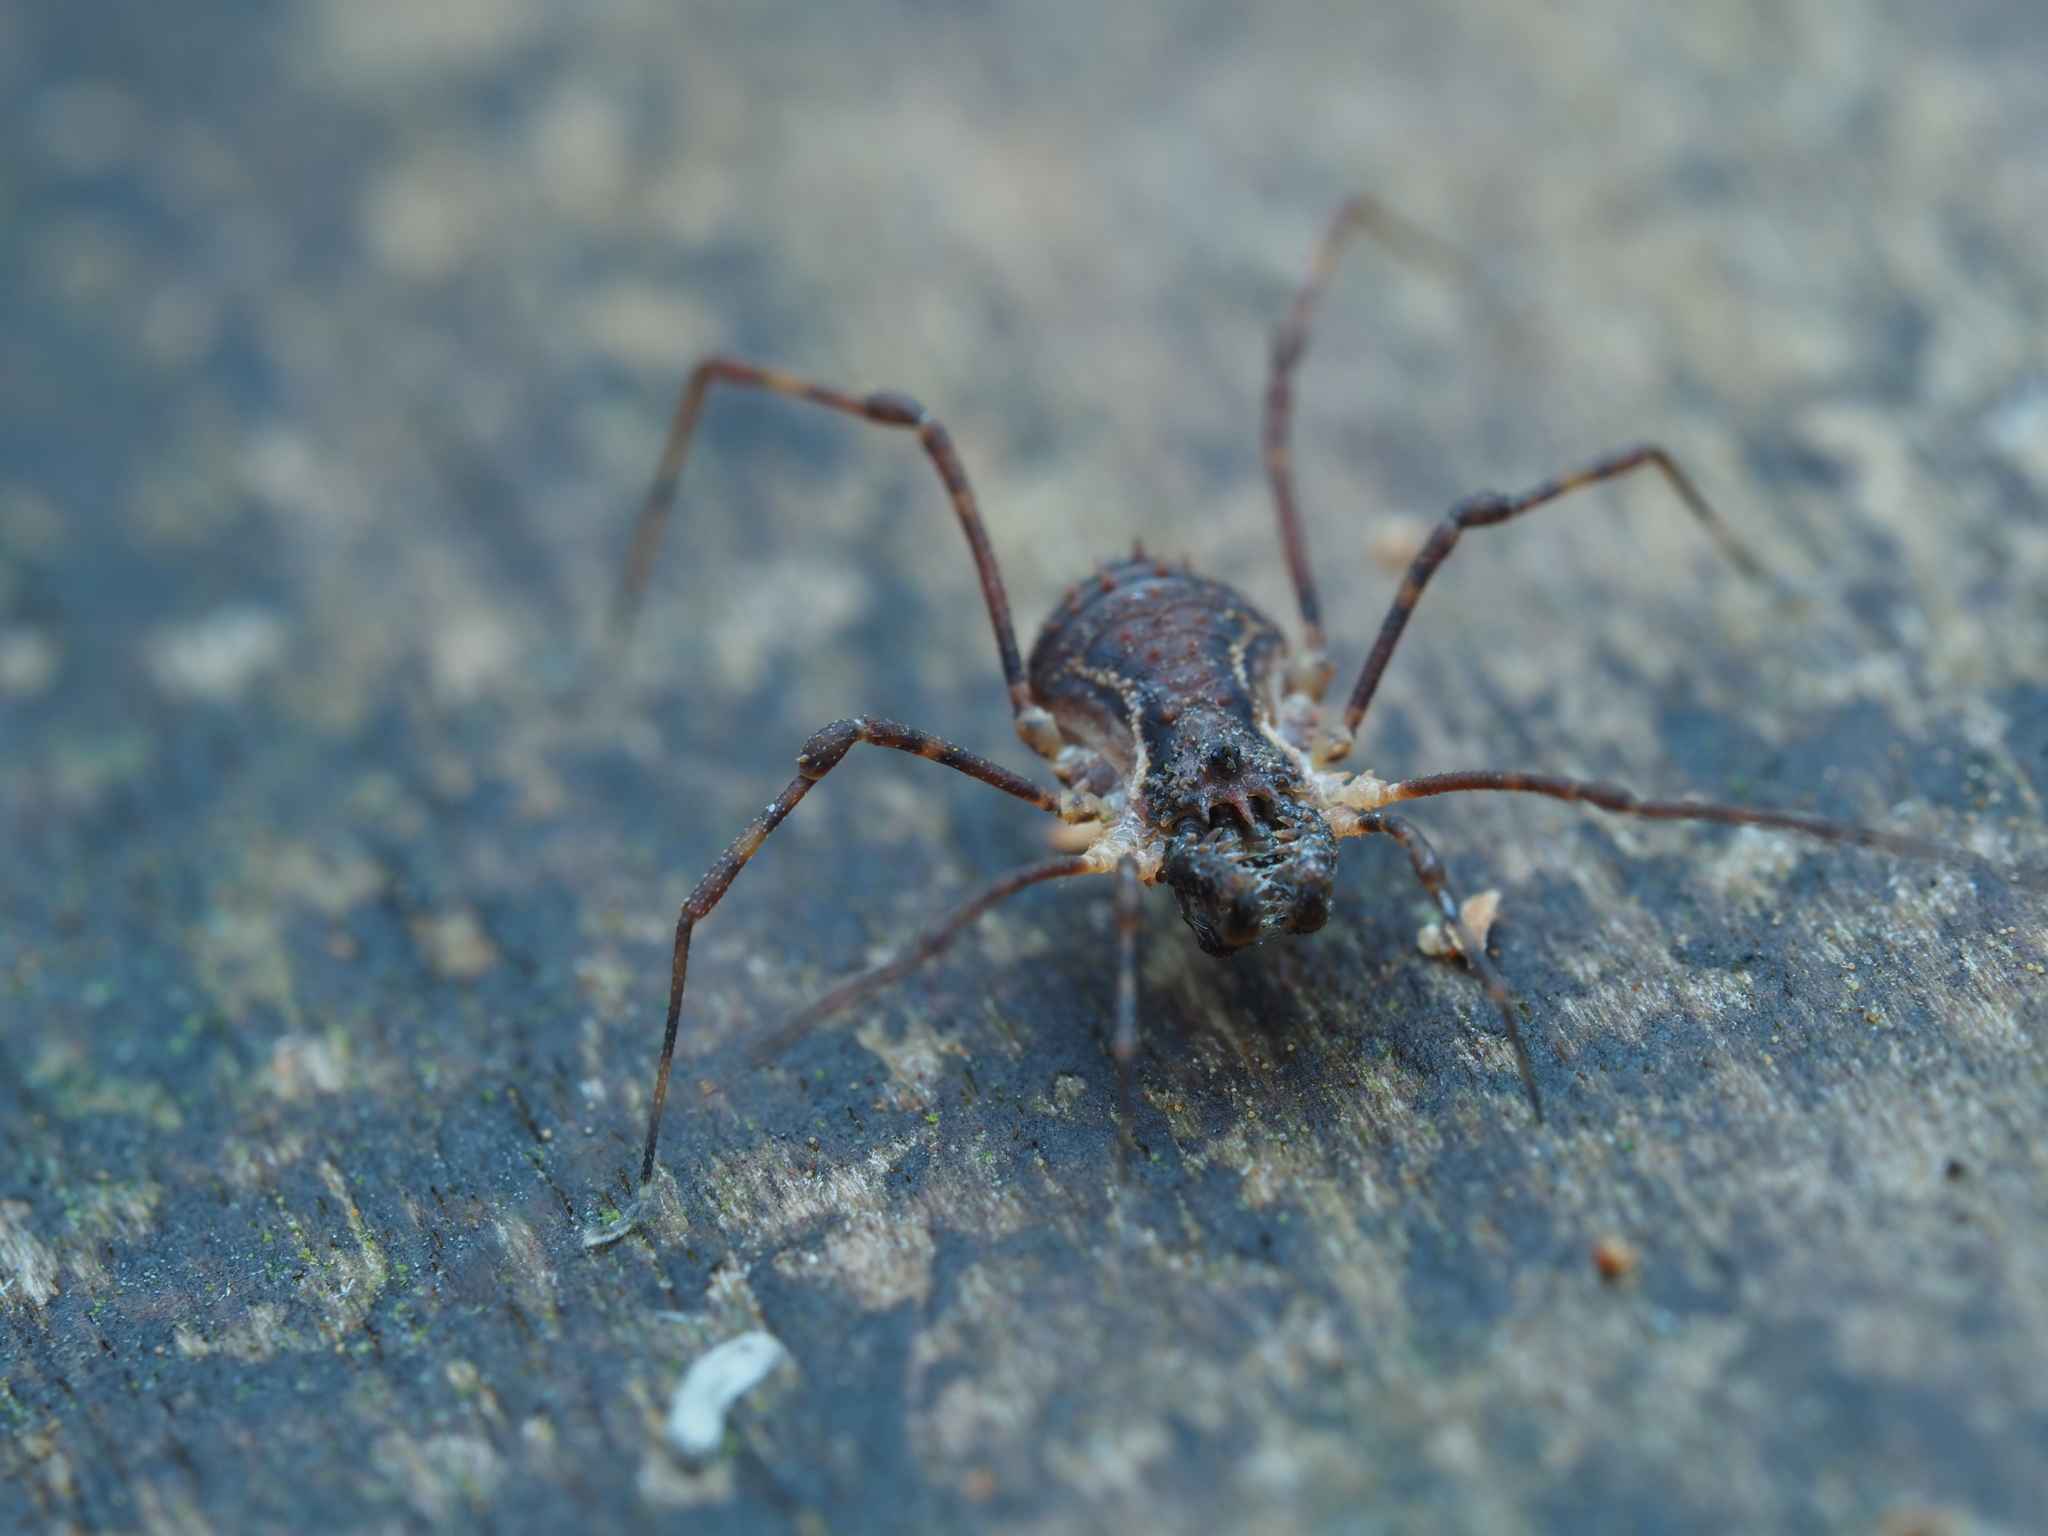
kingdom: Animalia
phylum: Arthropoda
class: Arachnida
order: Opiliones
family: Triaenonychidae
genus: Algidia
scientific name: Algidia chiltoni
